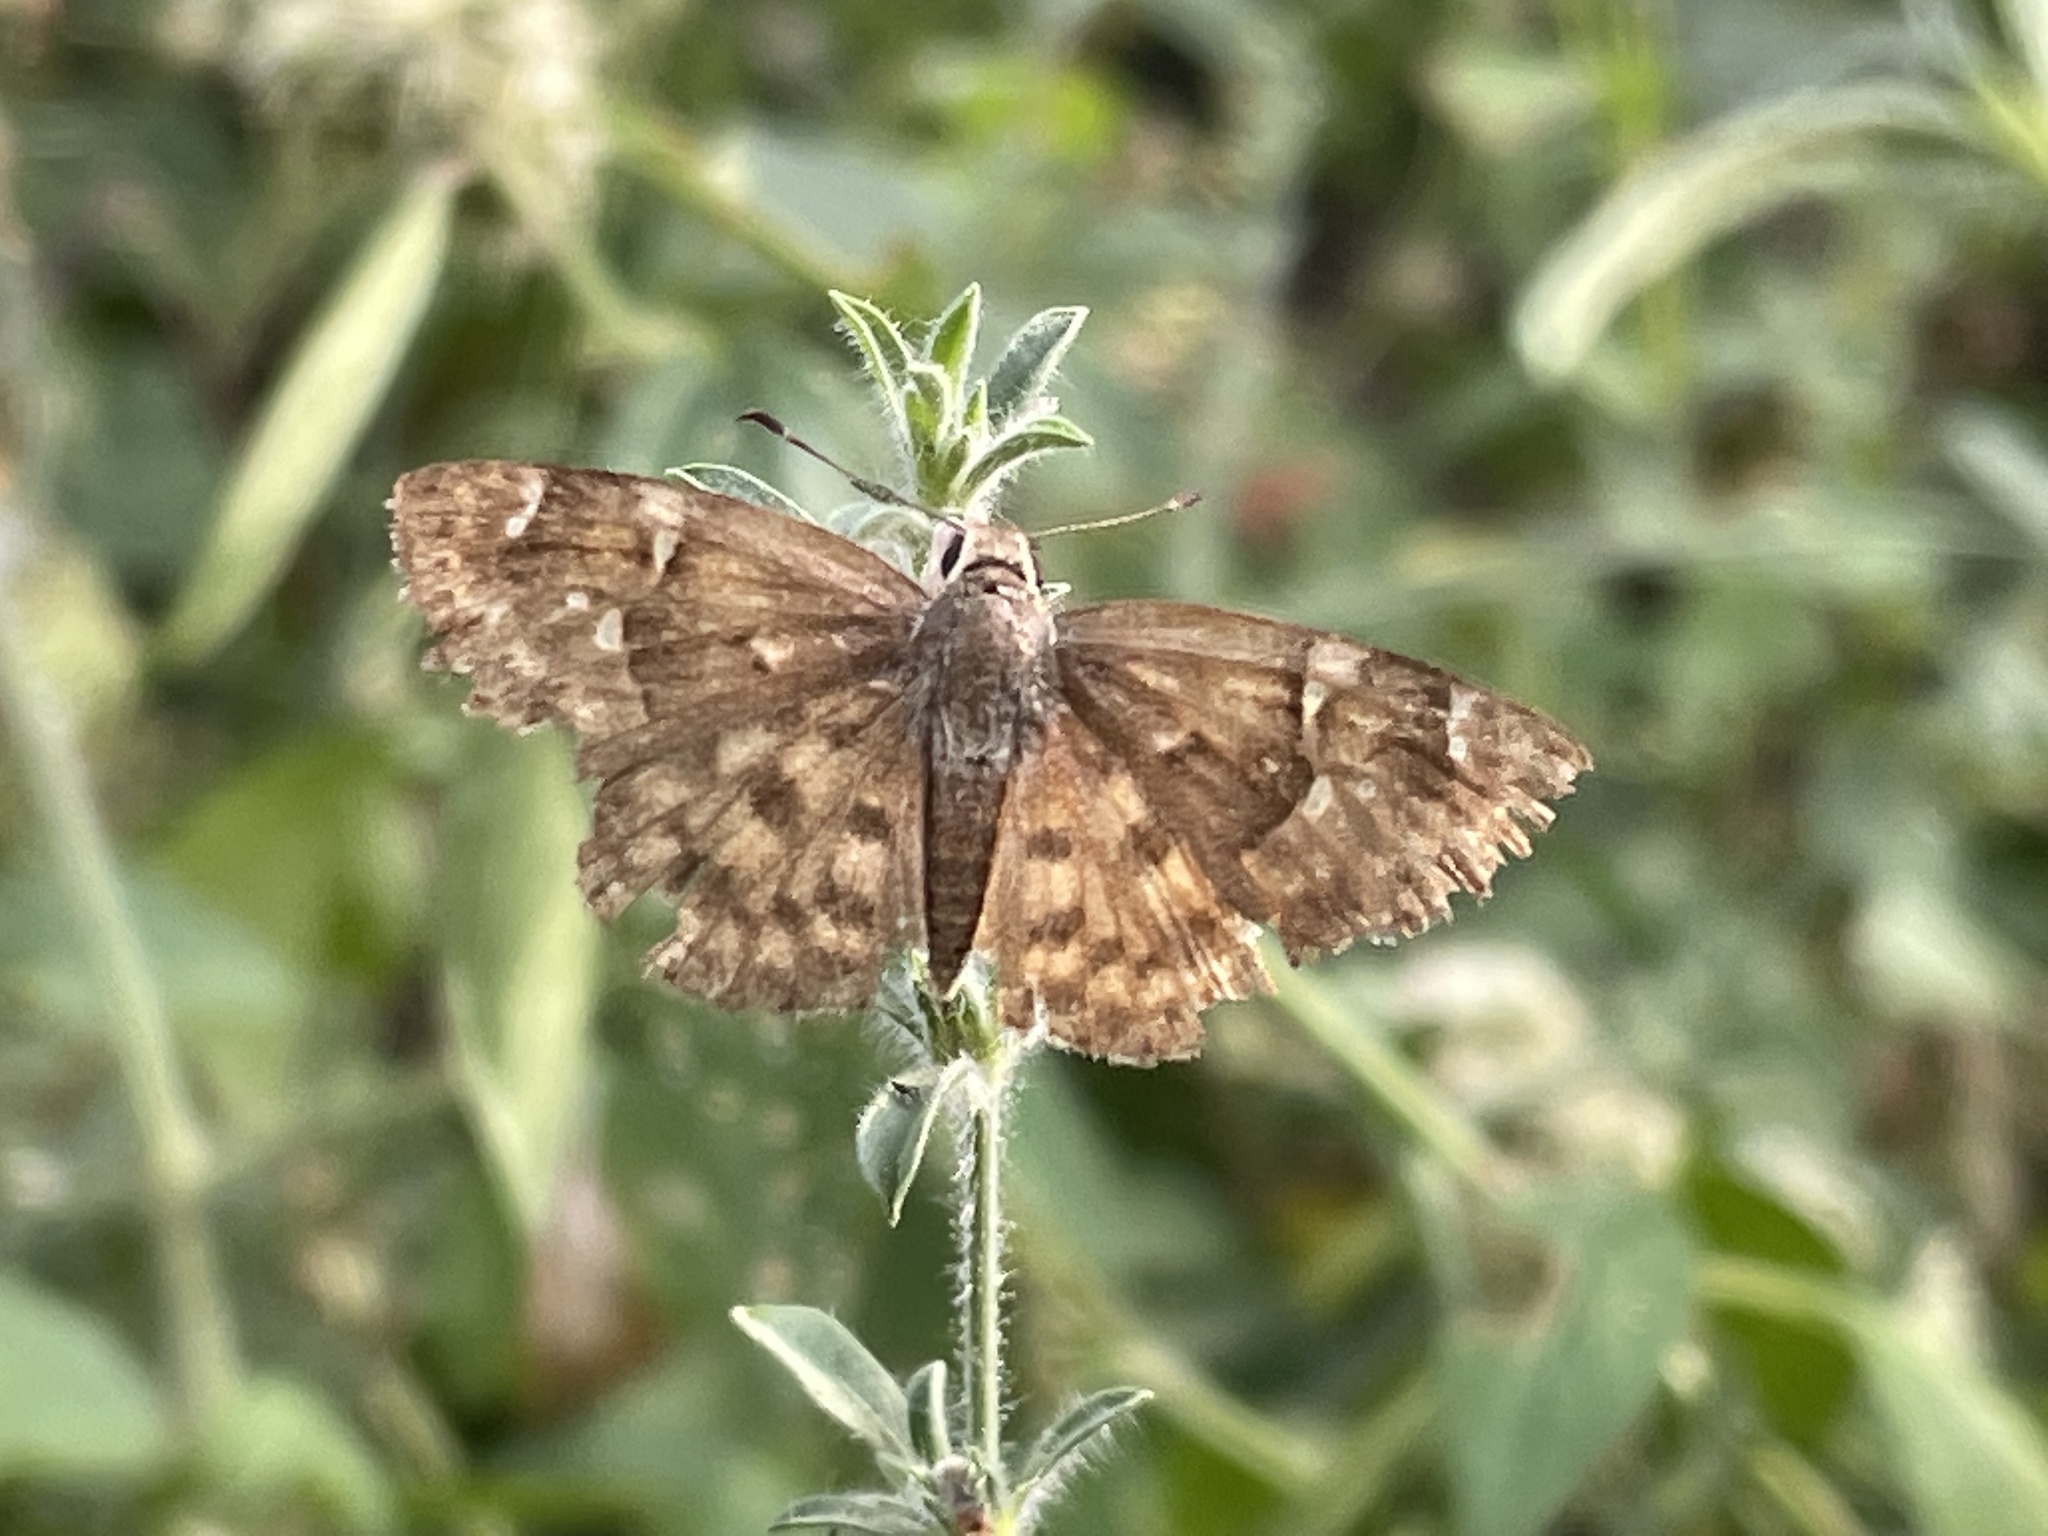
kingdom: Animalia
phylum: Arthropoda
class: Insecta
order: Lepidoptera
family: Hesperiidae
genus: Sarangesa
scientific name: Sarangesa phidyle
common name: Small elfin
